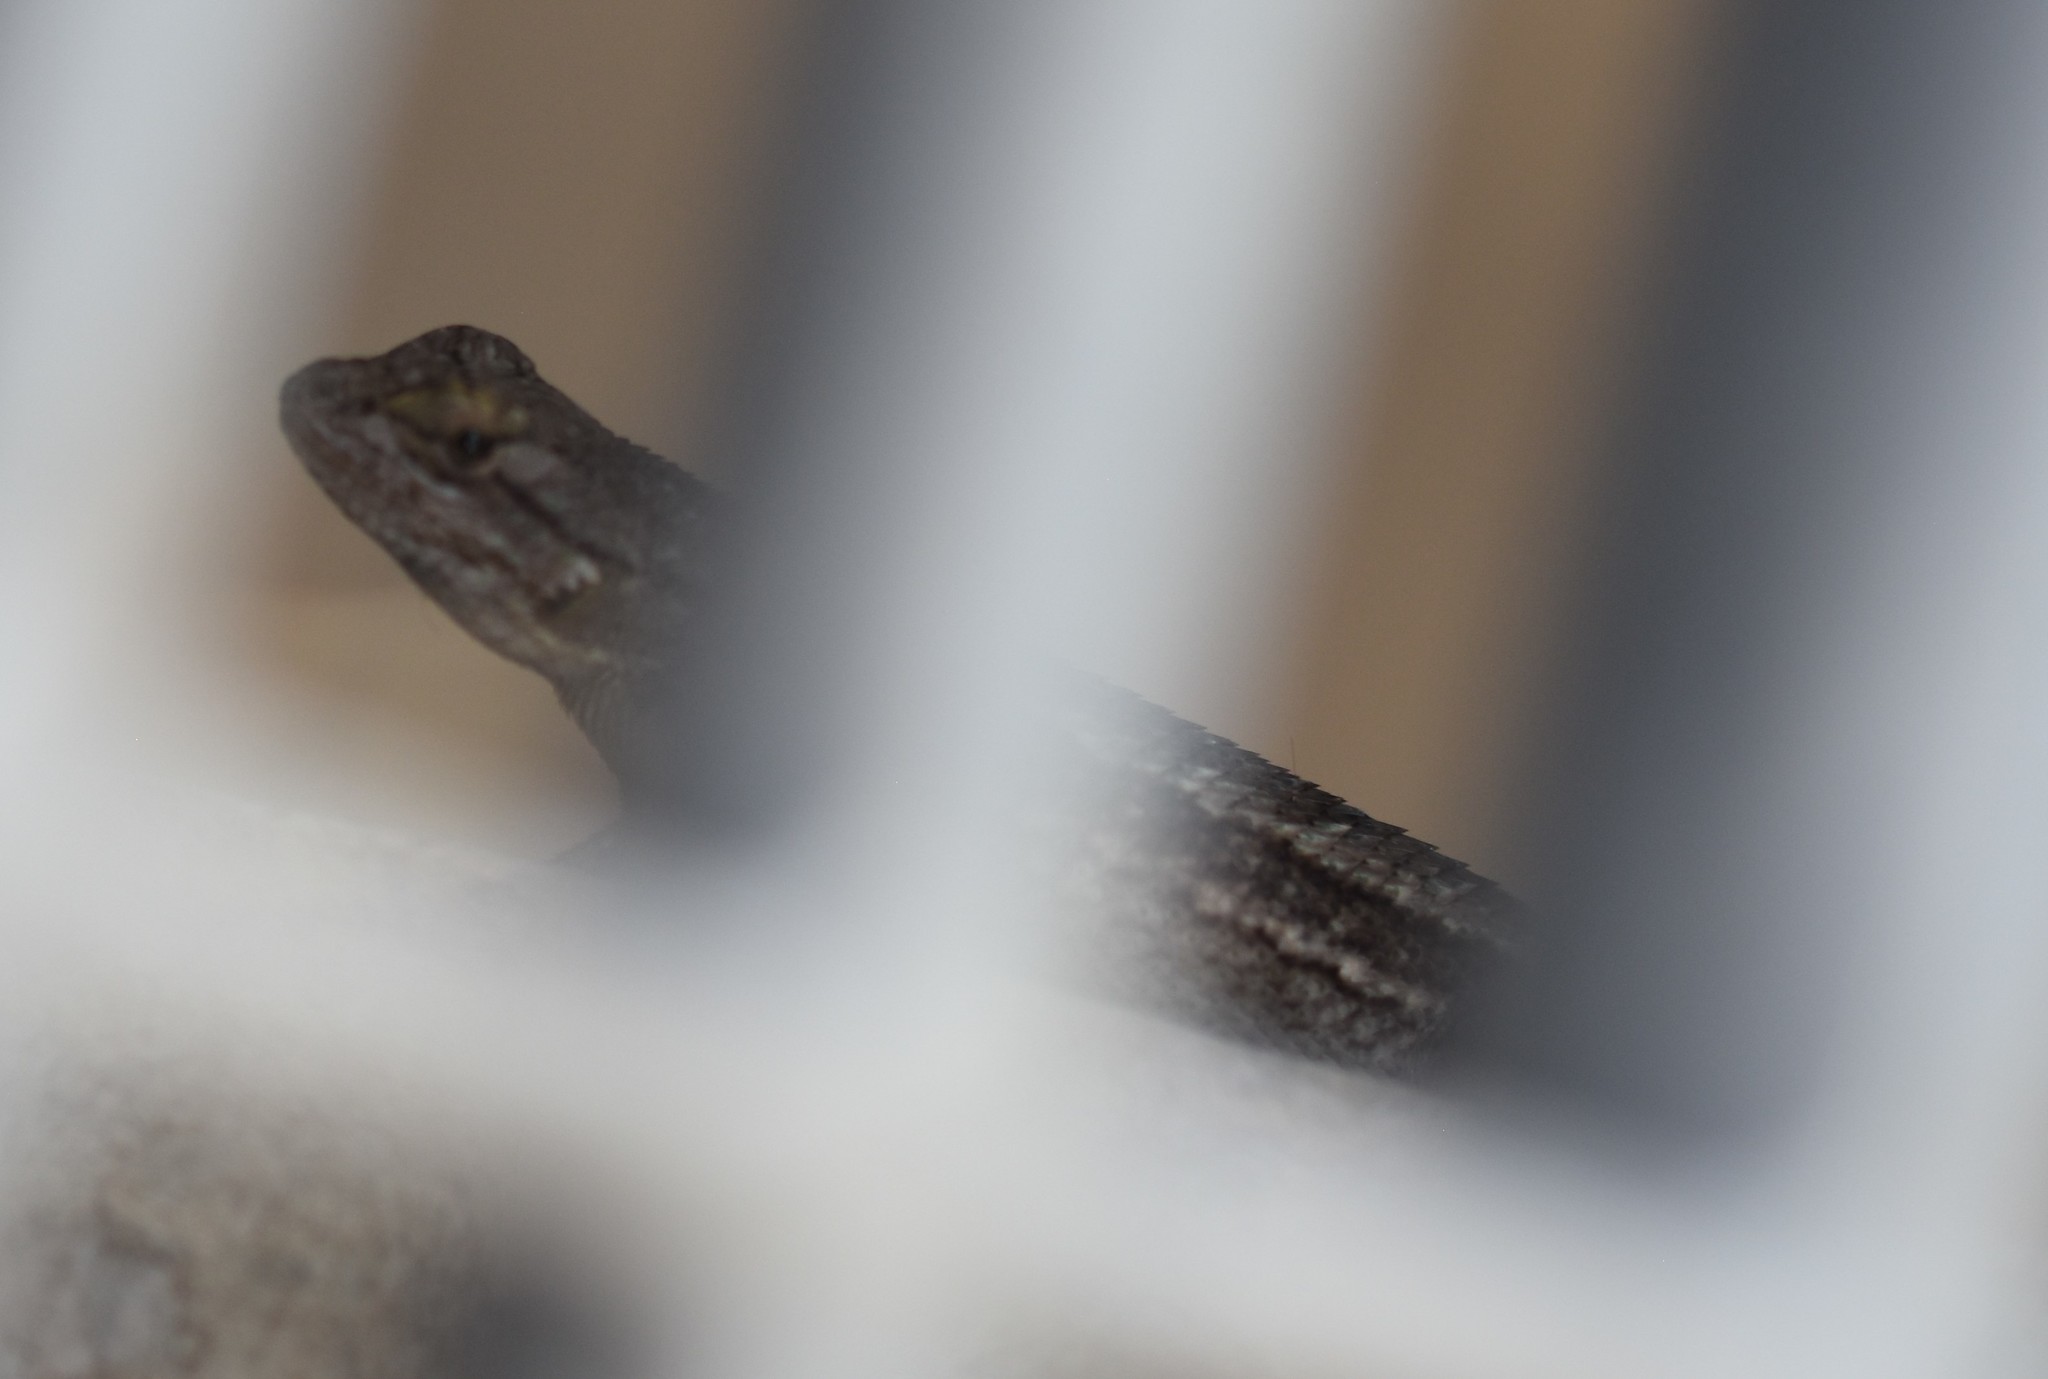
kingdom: Animalia
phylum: Chordata
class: Squamata
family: Phrynosomatidae
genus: Sceloporus
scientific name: Sceloporus occidentalis
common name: Western fence lizard
